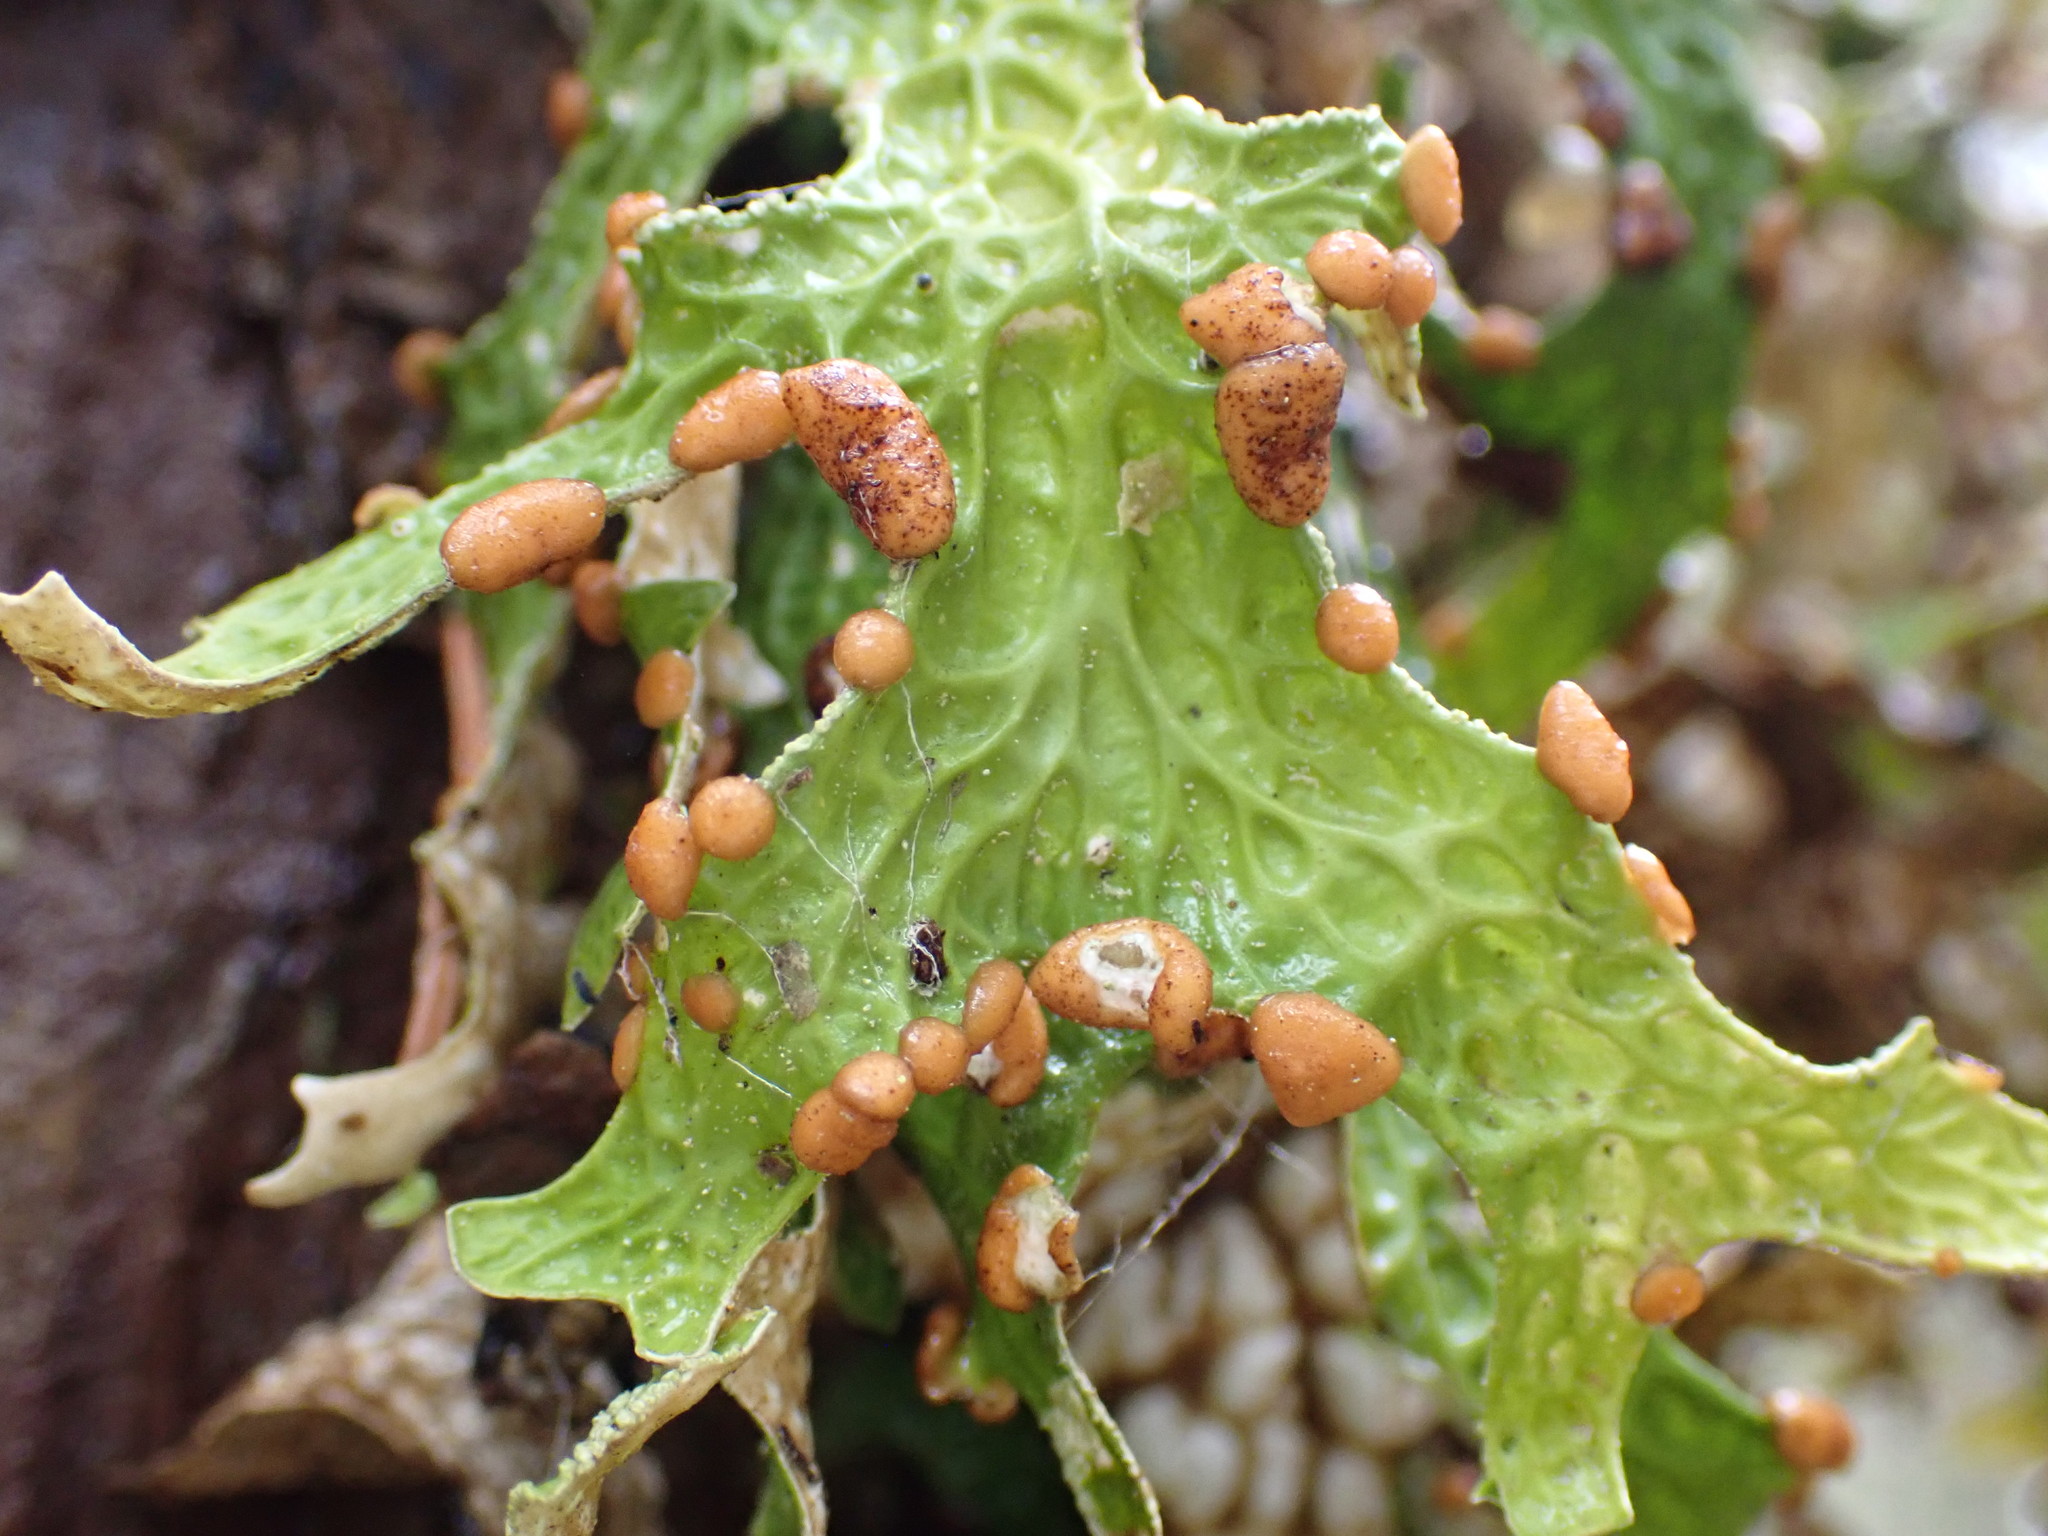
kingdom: Fungi
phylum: Ascomycota
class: Lecanoromycetes
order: Peltigerales
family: Lobariaceae
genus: Lobaria
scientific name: Lobaria pulmonaria
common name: Lungwort
